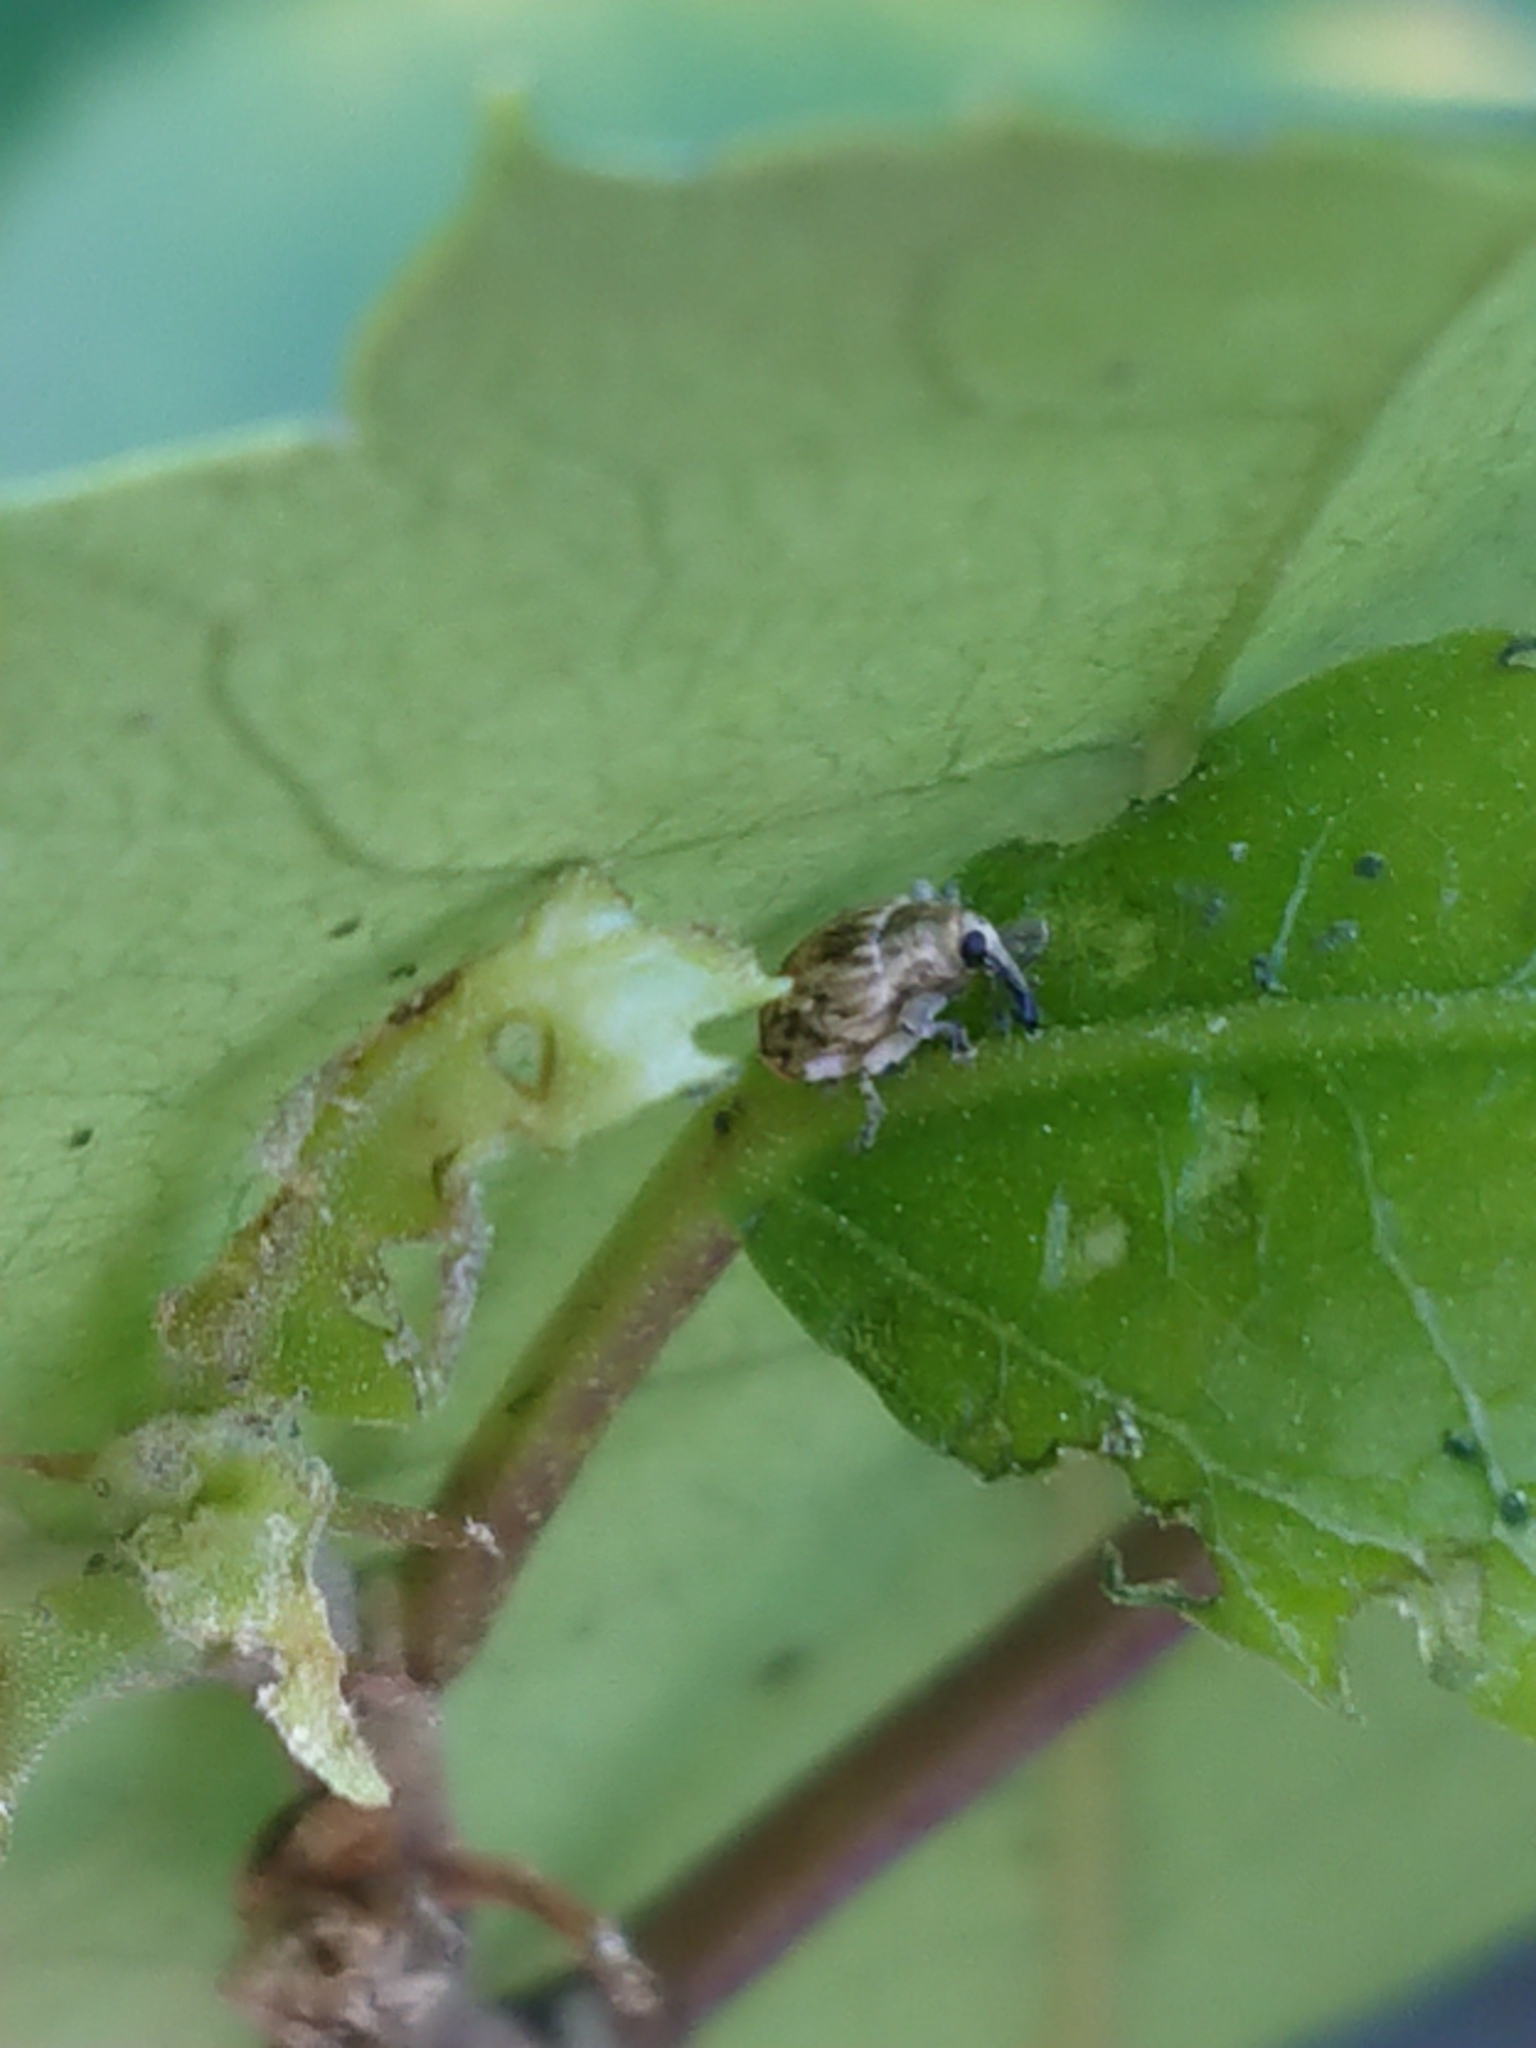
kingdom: Animalia
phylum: Arthropoda
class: Insecta
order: Coleoptera
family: Curculionidae
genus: Aneuma
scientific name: Aneuma compta
